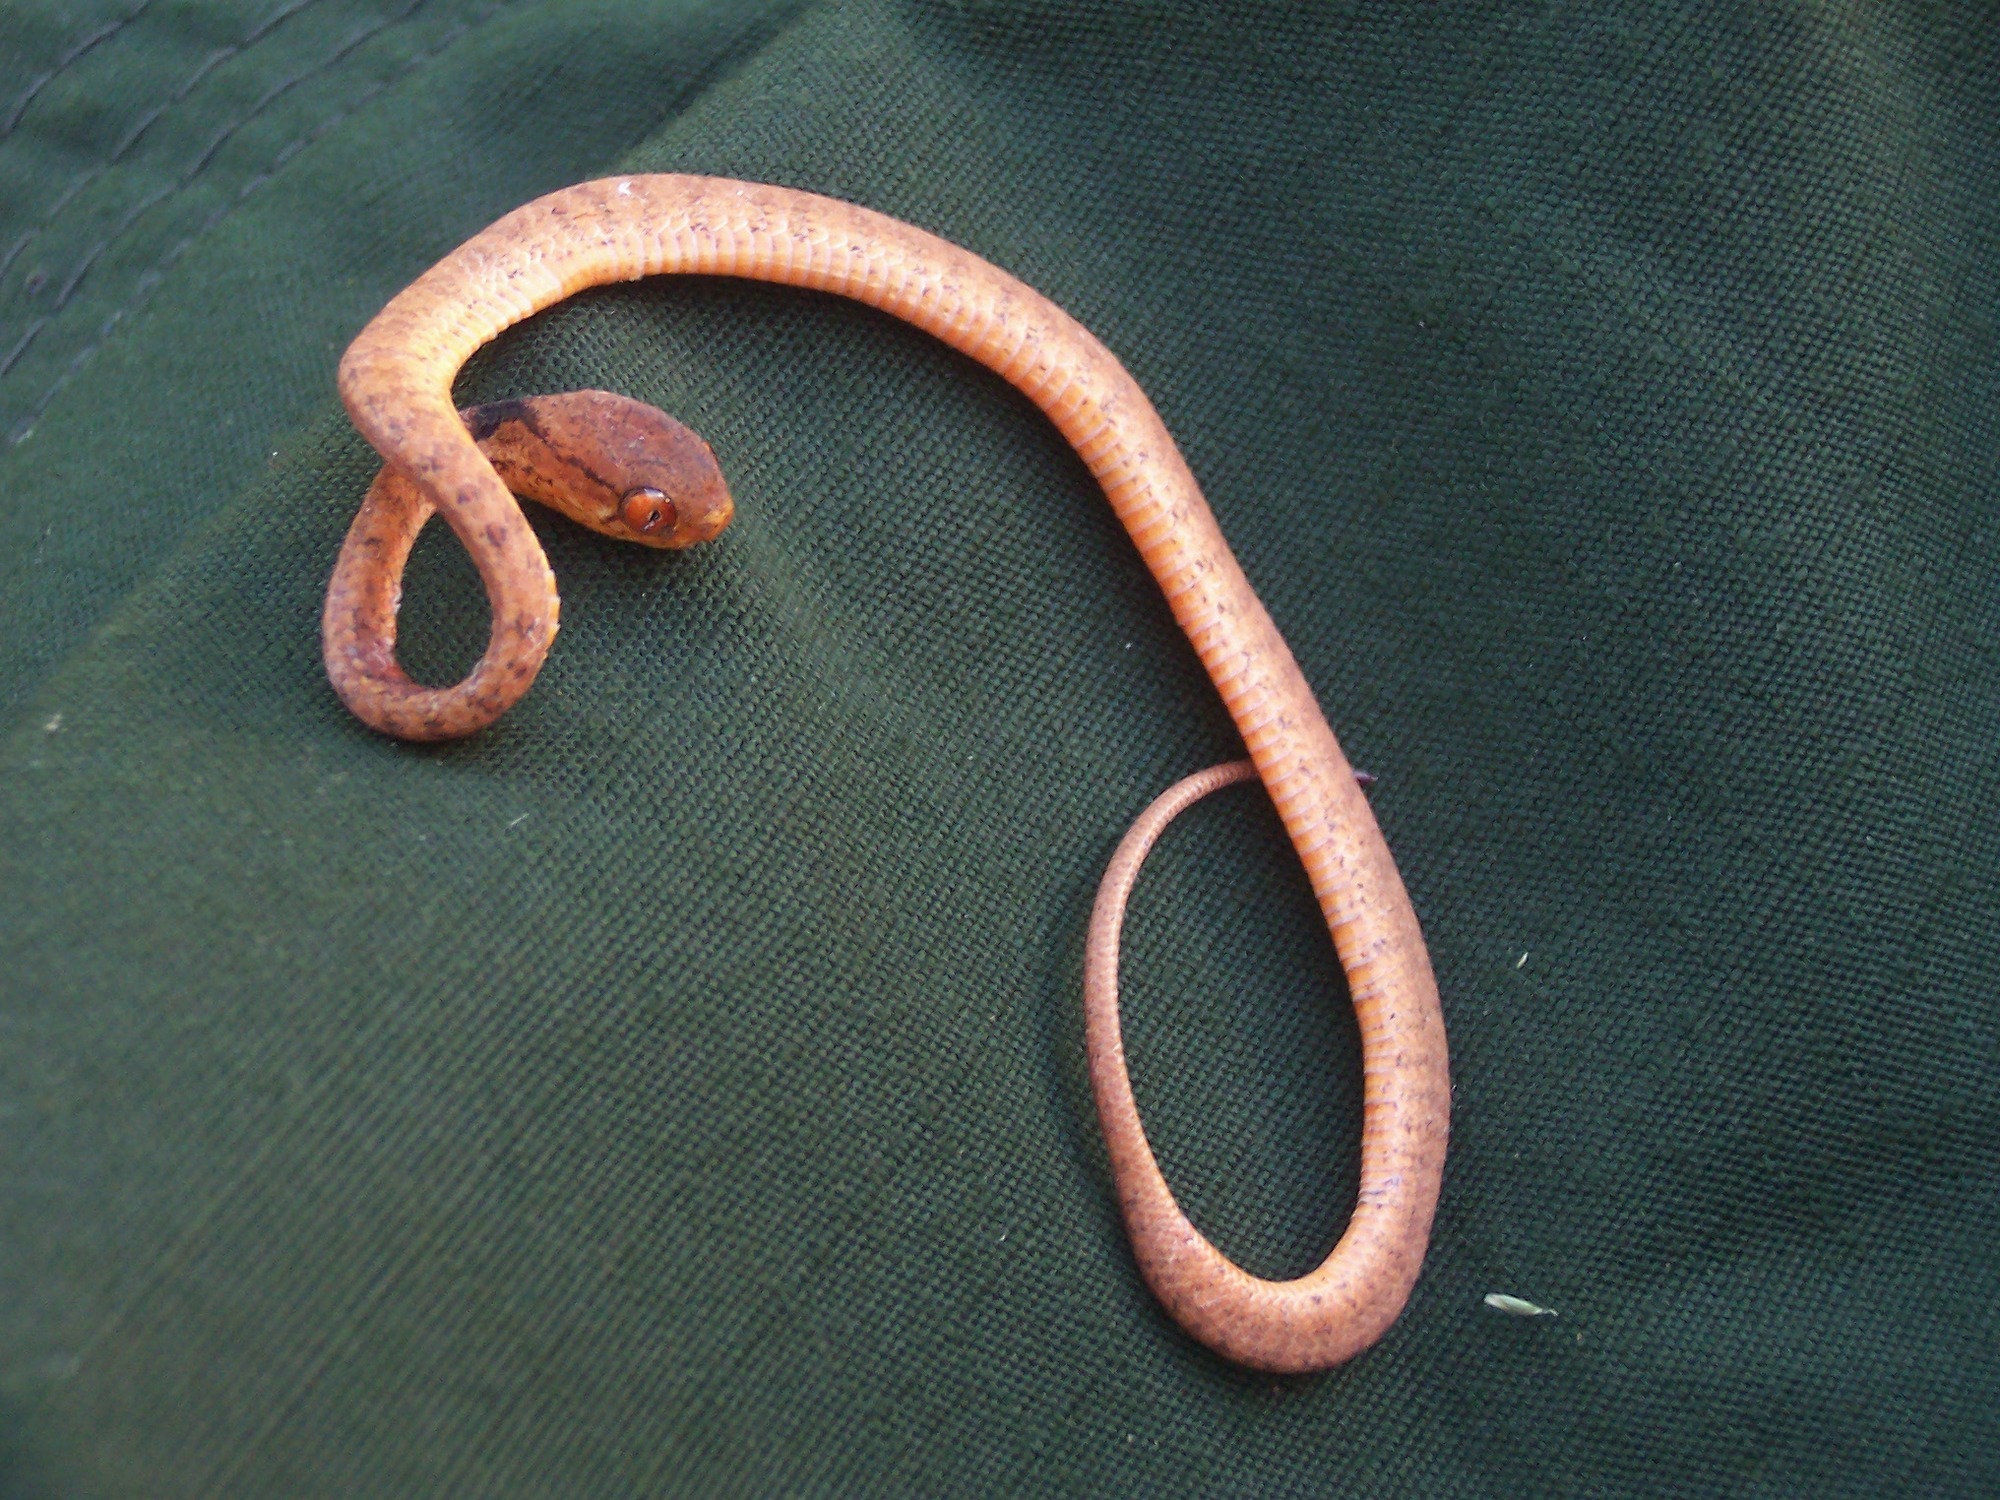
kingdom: Animalia
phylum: Chordata
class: Squamata
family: Pareidae
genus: Pareas
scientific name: Pareas carinatus
